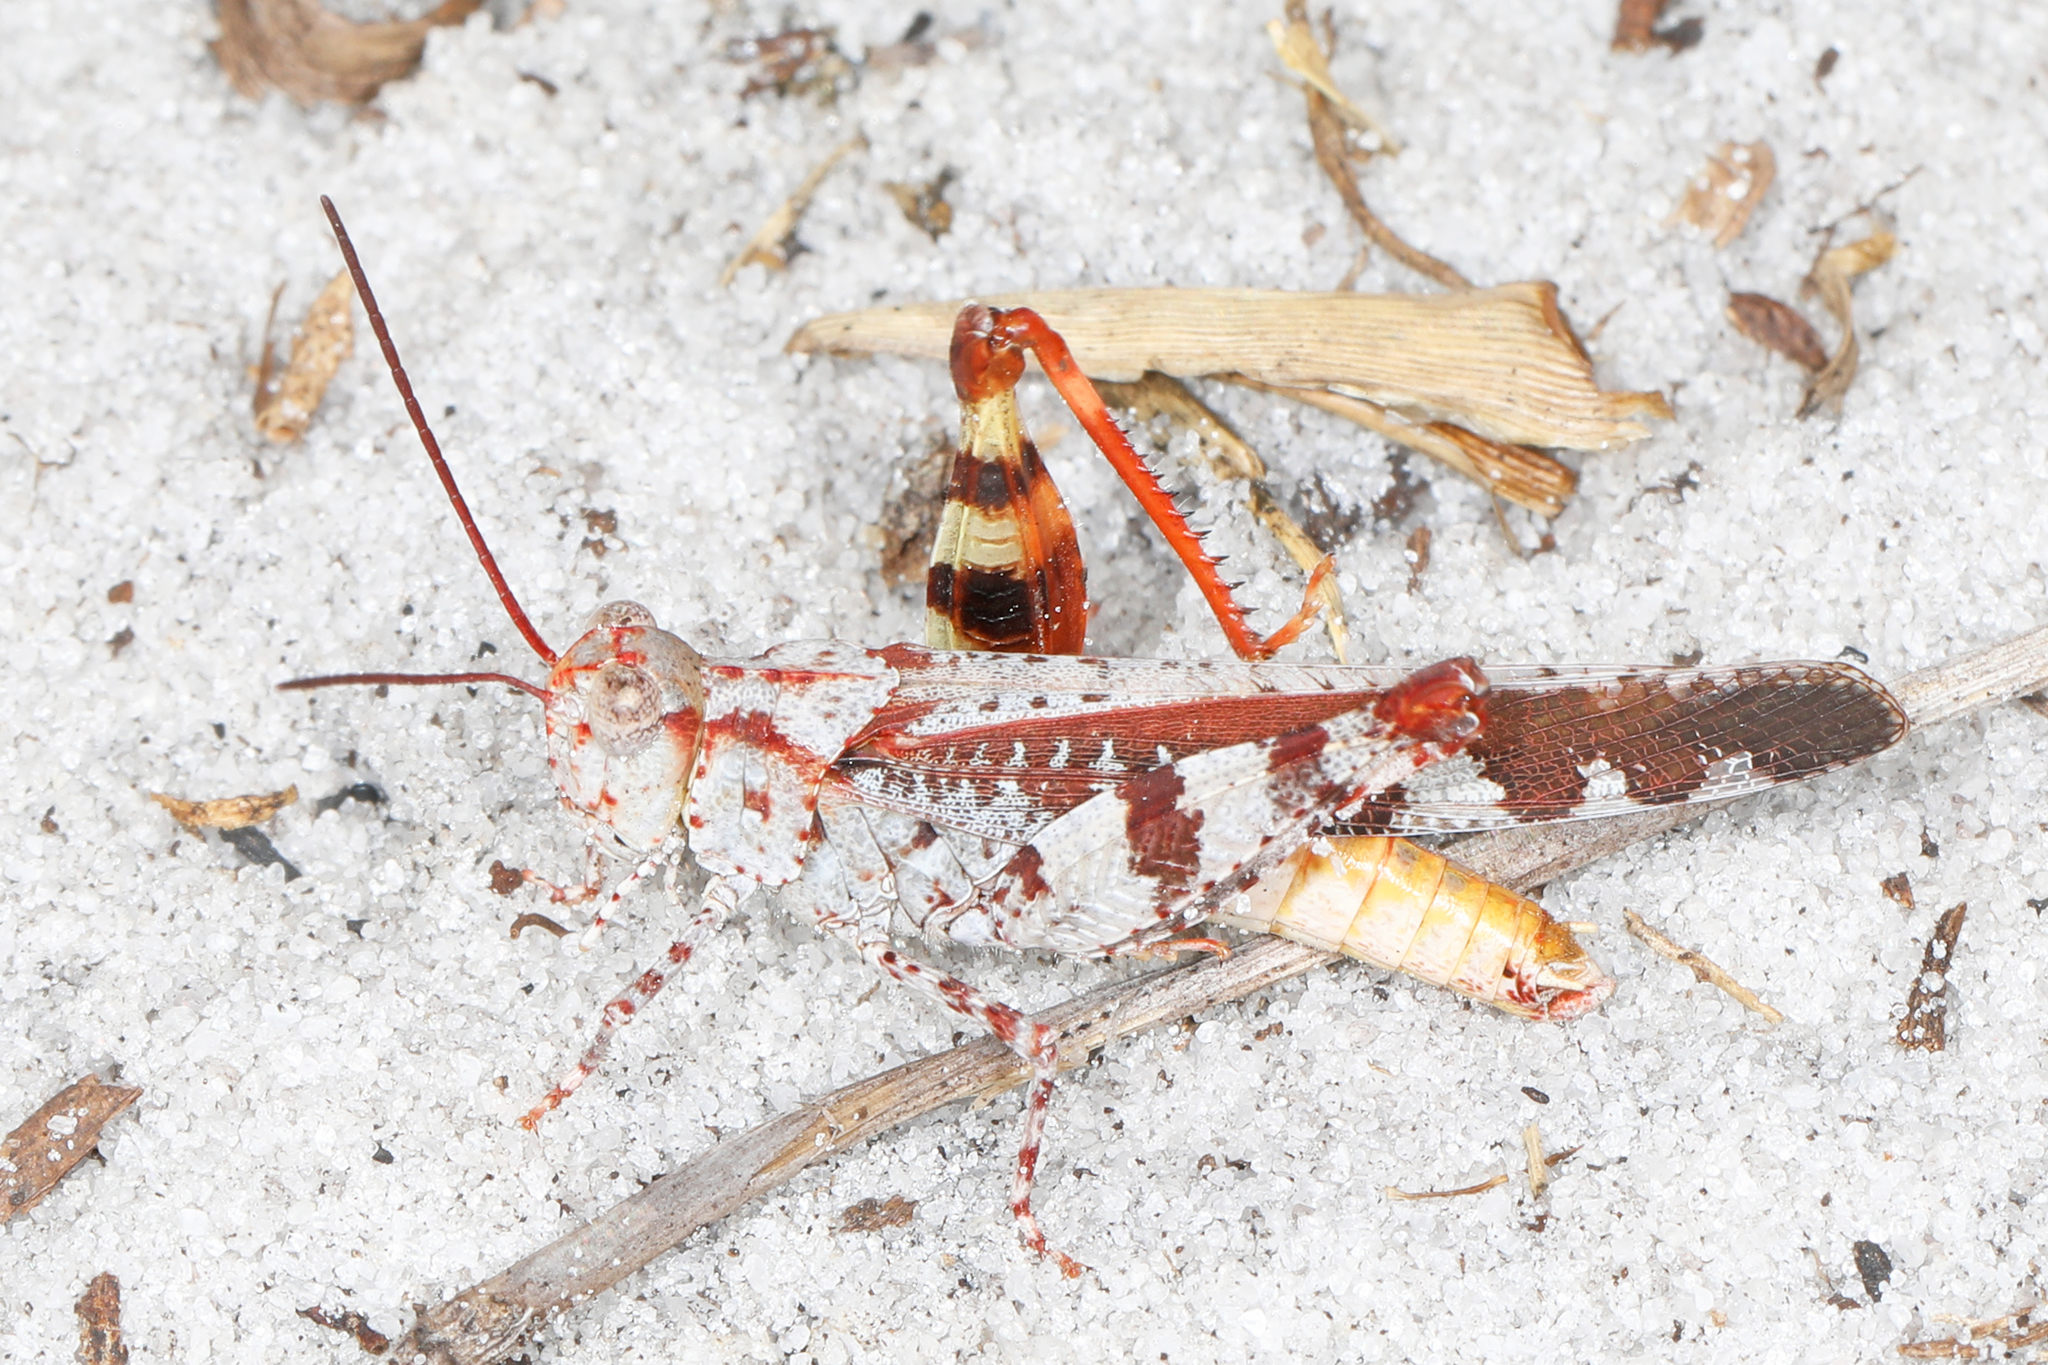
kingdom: Animalia
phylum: Arthropoda
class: Insecta
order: Orthoptera
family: Acrididae
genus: Spharagemon
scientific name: Spharagemon marmoratum
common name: Marbled grasshopper
